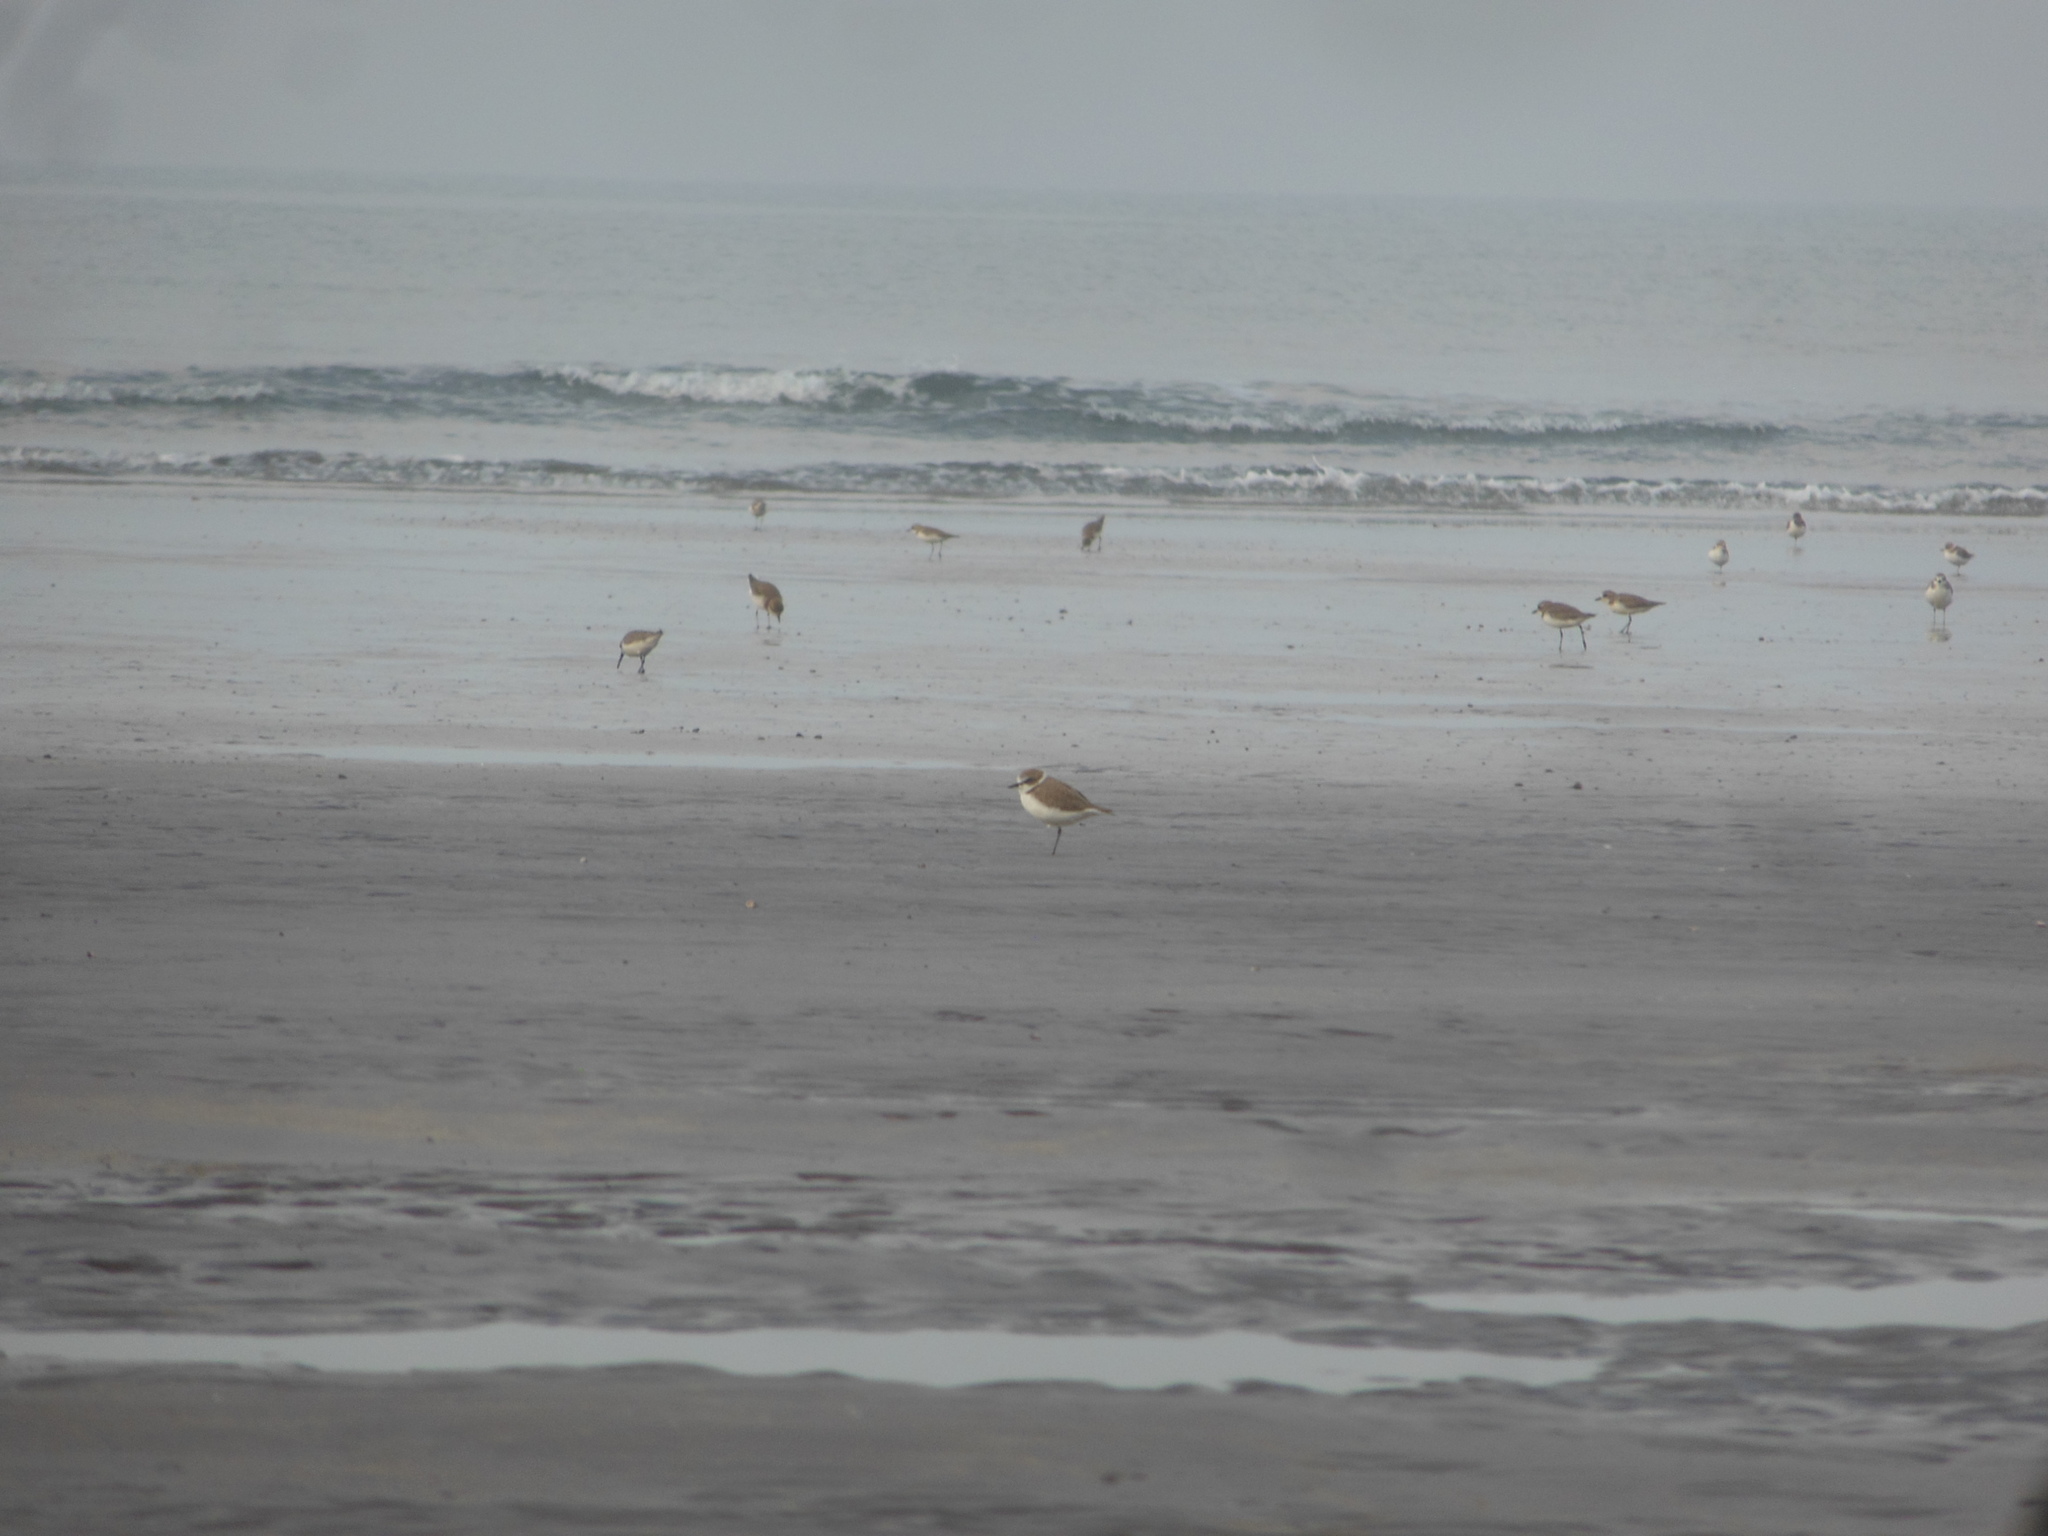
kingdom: Animalia
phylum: Chordata
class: Aves
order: Charadriiformes
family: Charadriidae
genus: Charadrius
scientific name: Charadrius alexandrinus
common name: Kentish plover
